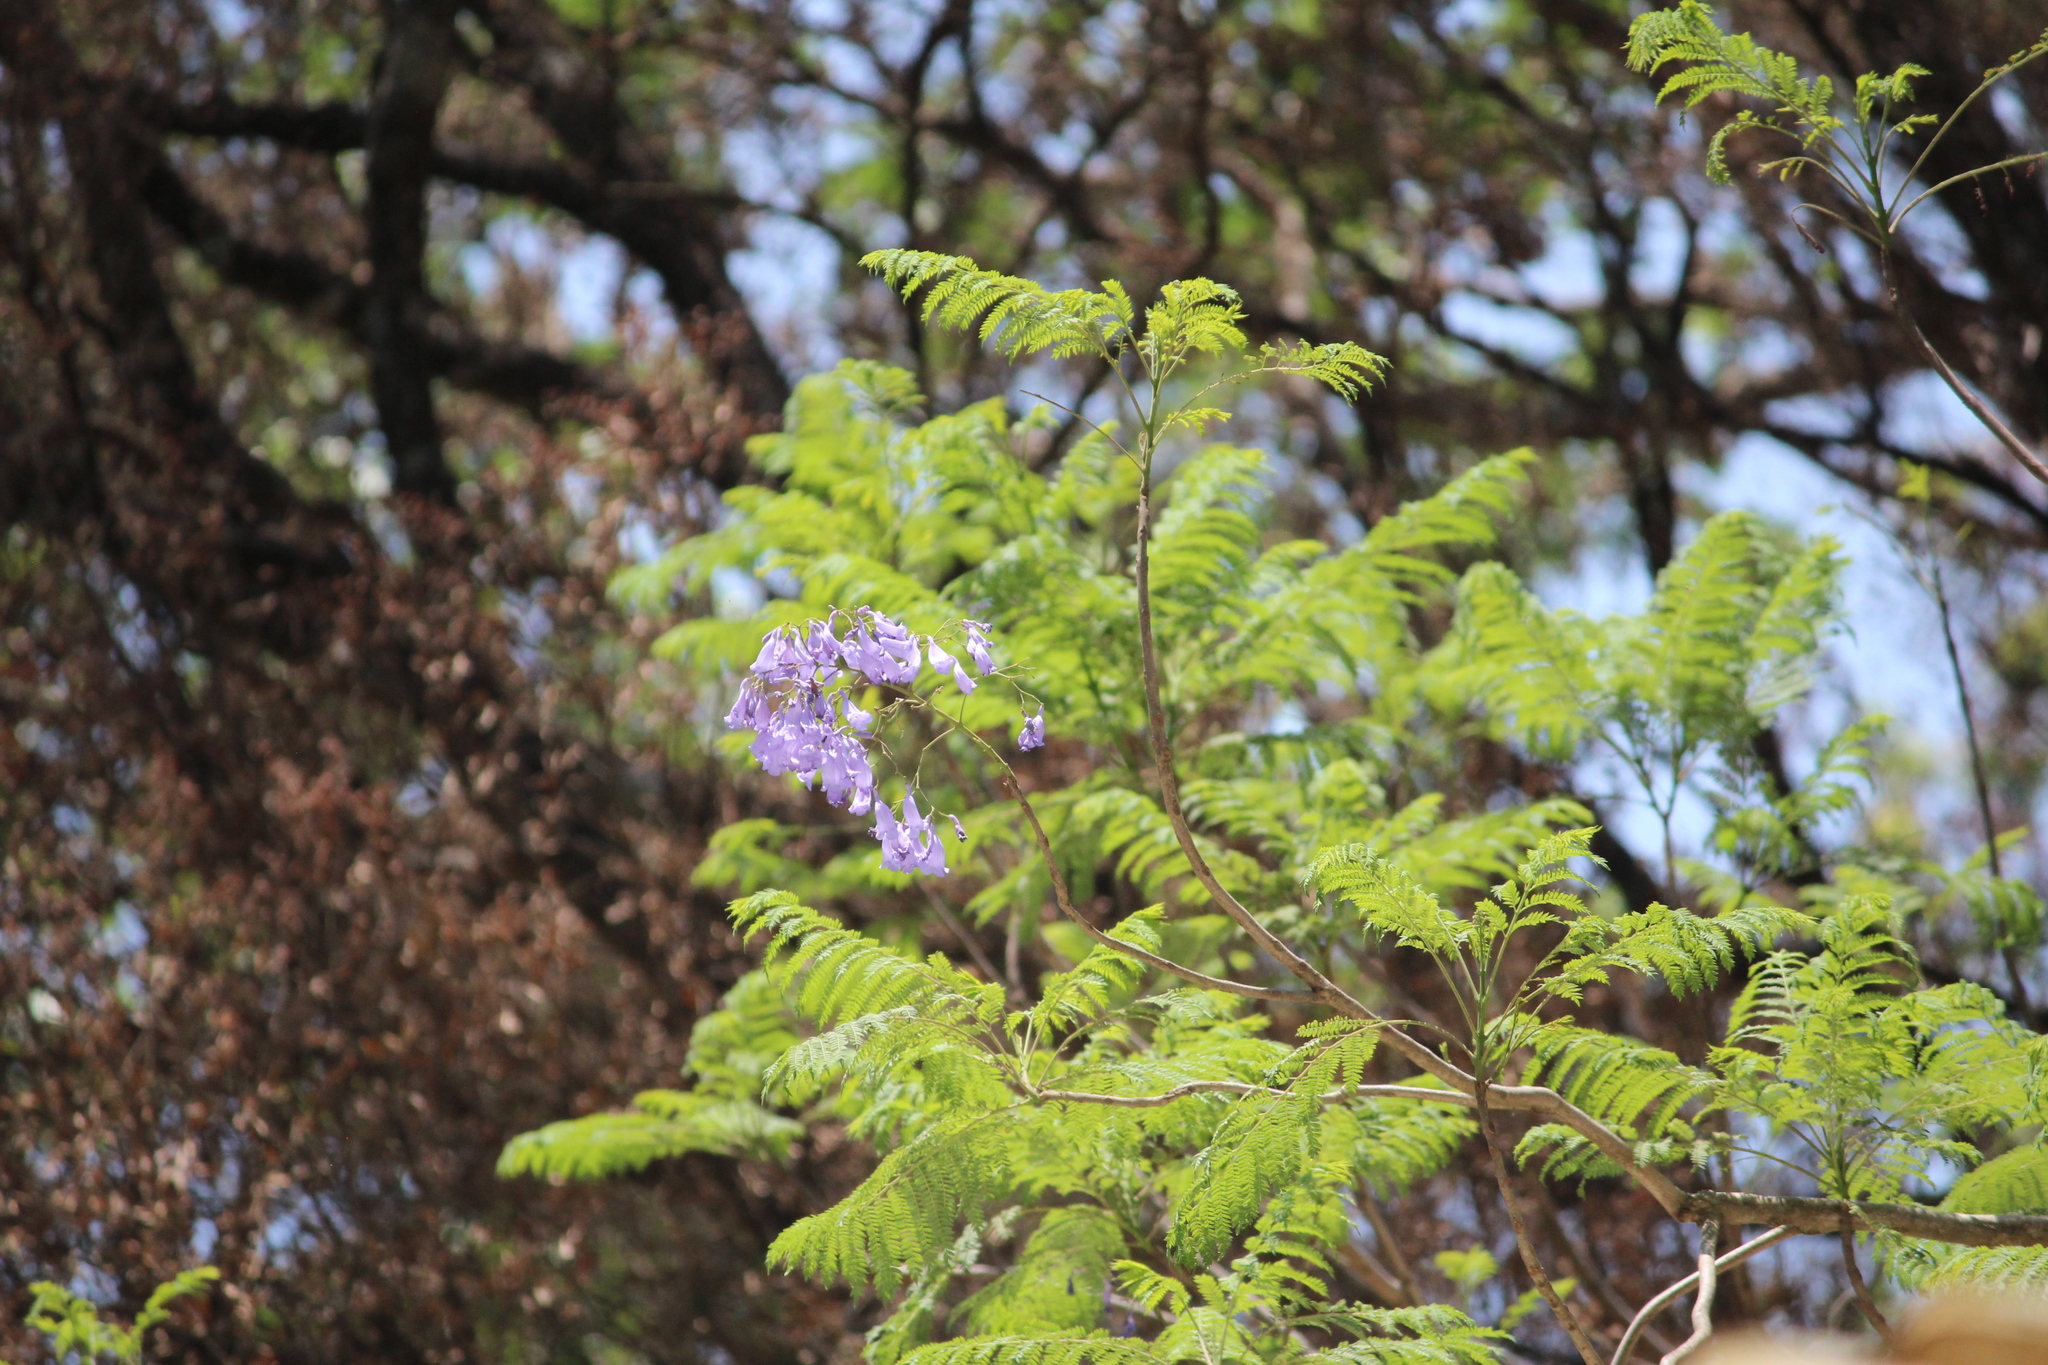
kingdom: Plantae
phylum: Tracheophyta
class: Magnoliopsida
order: Lamiales
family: Bignoniaceae
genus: Jacaranda
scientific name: Jacaranda mimosifolia
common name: Black poui
